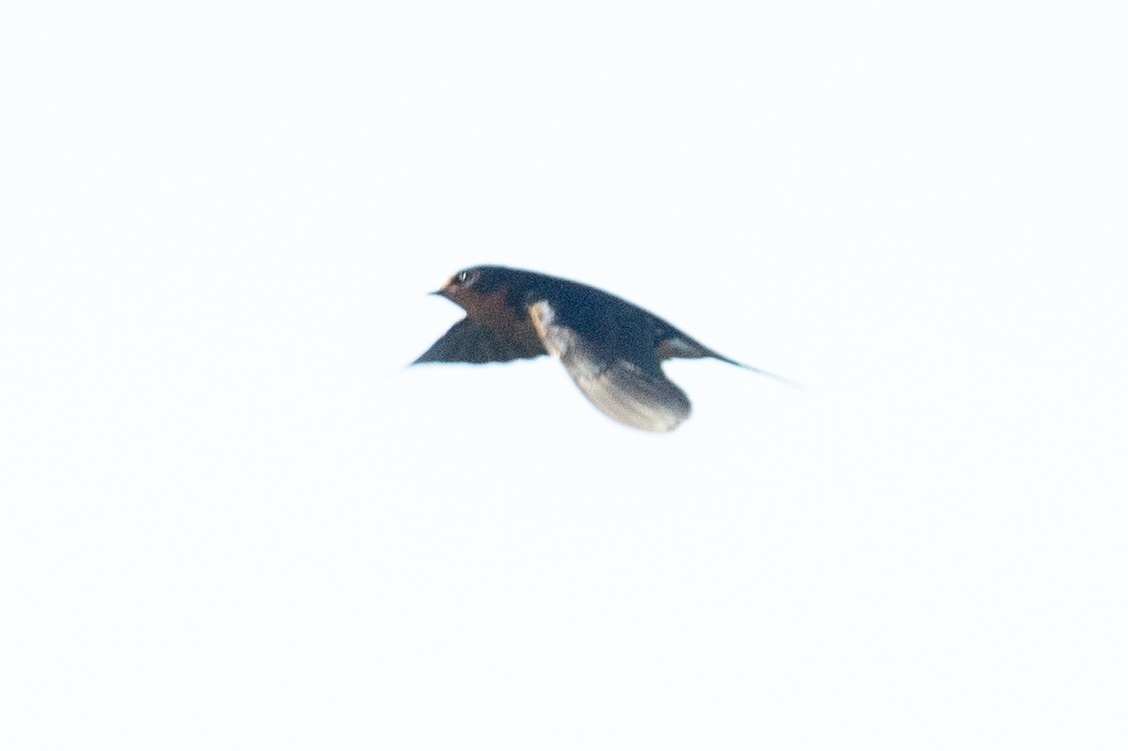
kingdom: Animalia
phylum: Chordata
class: Aves
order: Passeriformes
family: Hirundinidae
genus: Hirundo
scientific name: Hirundo rustica
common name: Barn swallow
